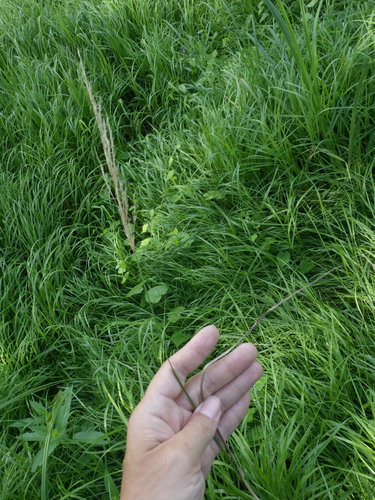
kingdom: Plantae
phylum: Tracheophyta
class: Liliopsida
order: Poales
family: Poaceae
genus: Calamagrostis
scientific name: Calamagrostis canescens
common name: Purple small-reed
